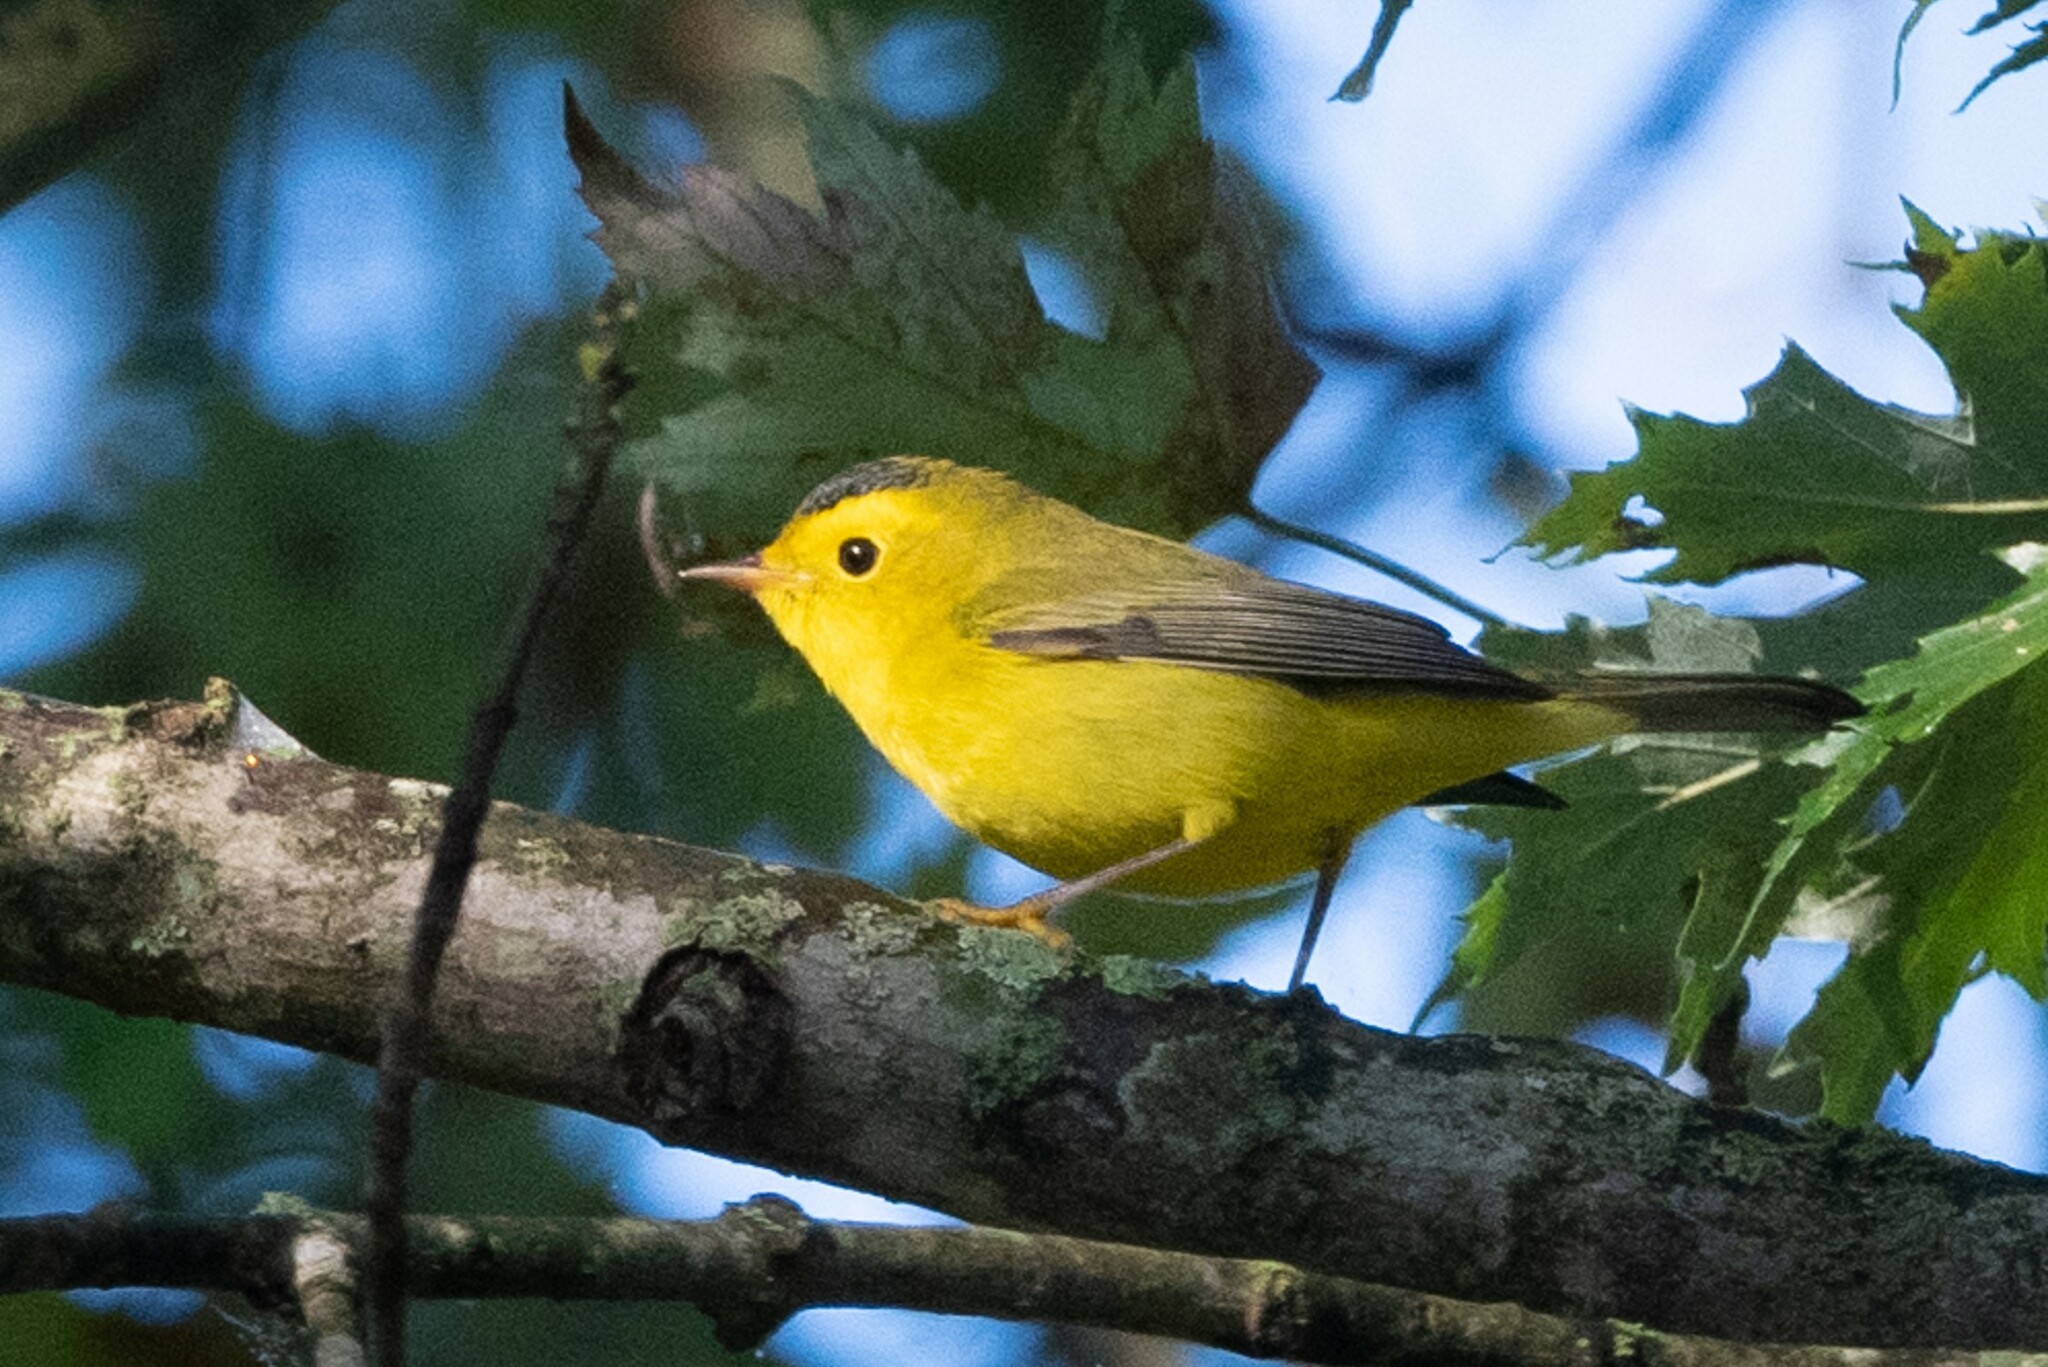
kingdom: Animalia
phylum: Chordata
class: Aves
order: Passeriformes
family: Parulidae
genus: Cardellina
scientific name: Cardellina pusilla
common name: Wilson's warbler
